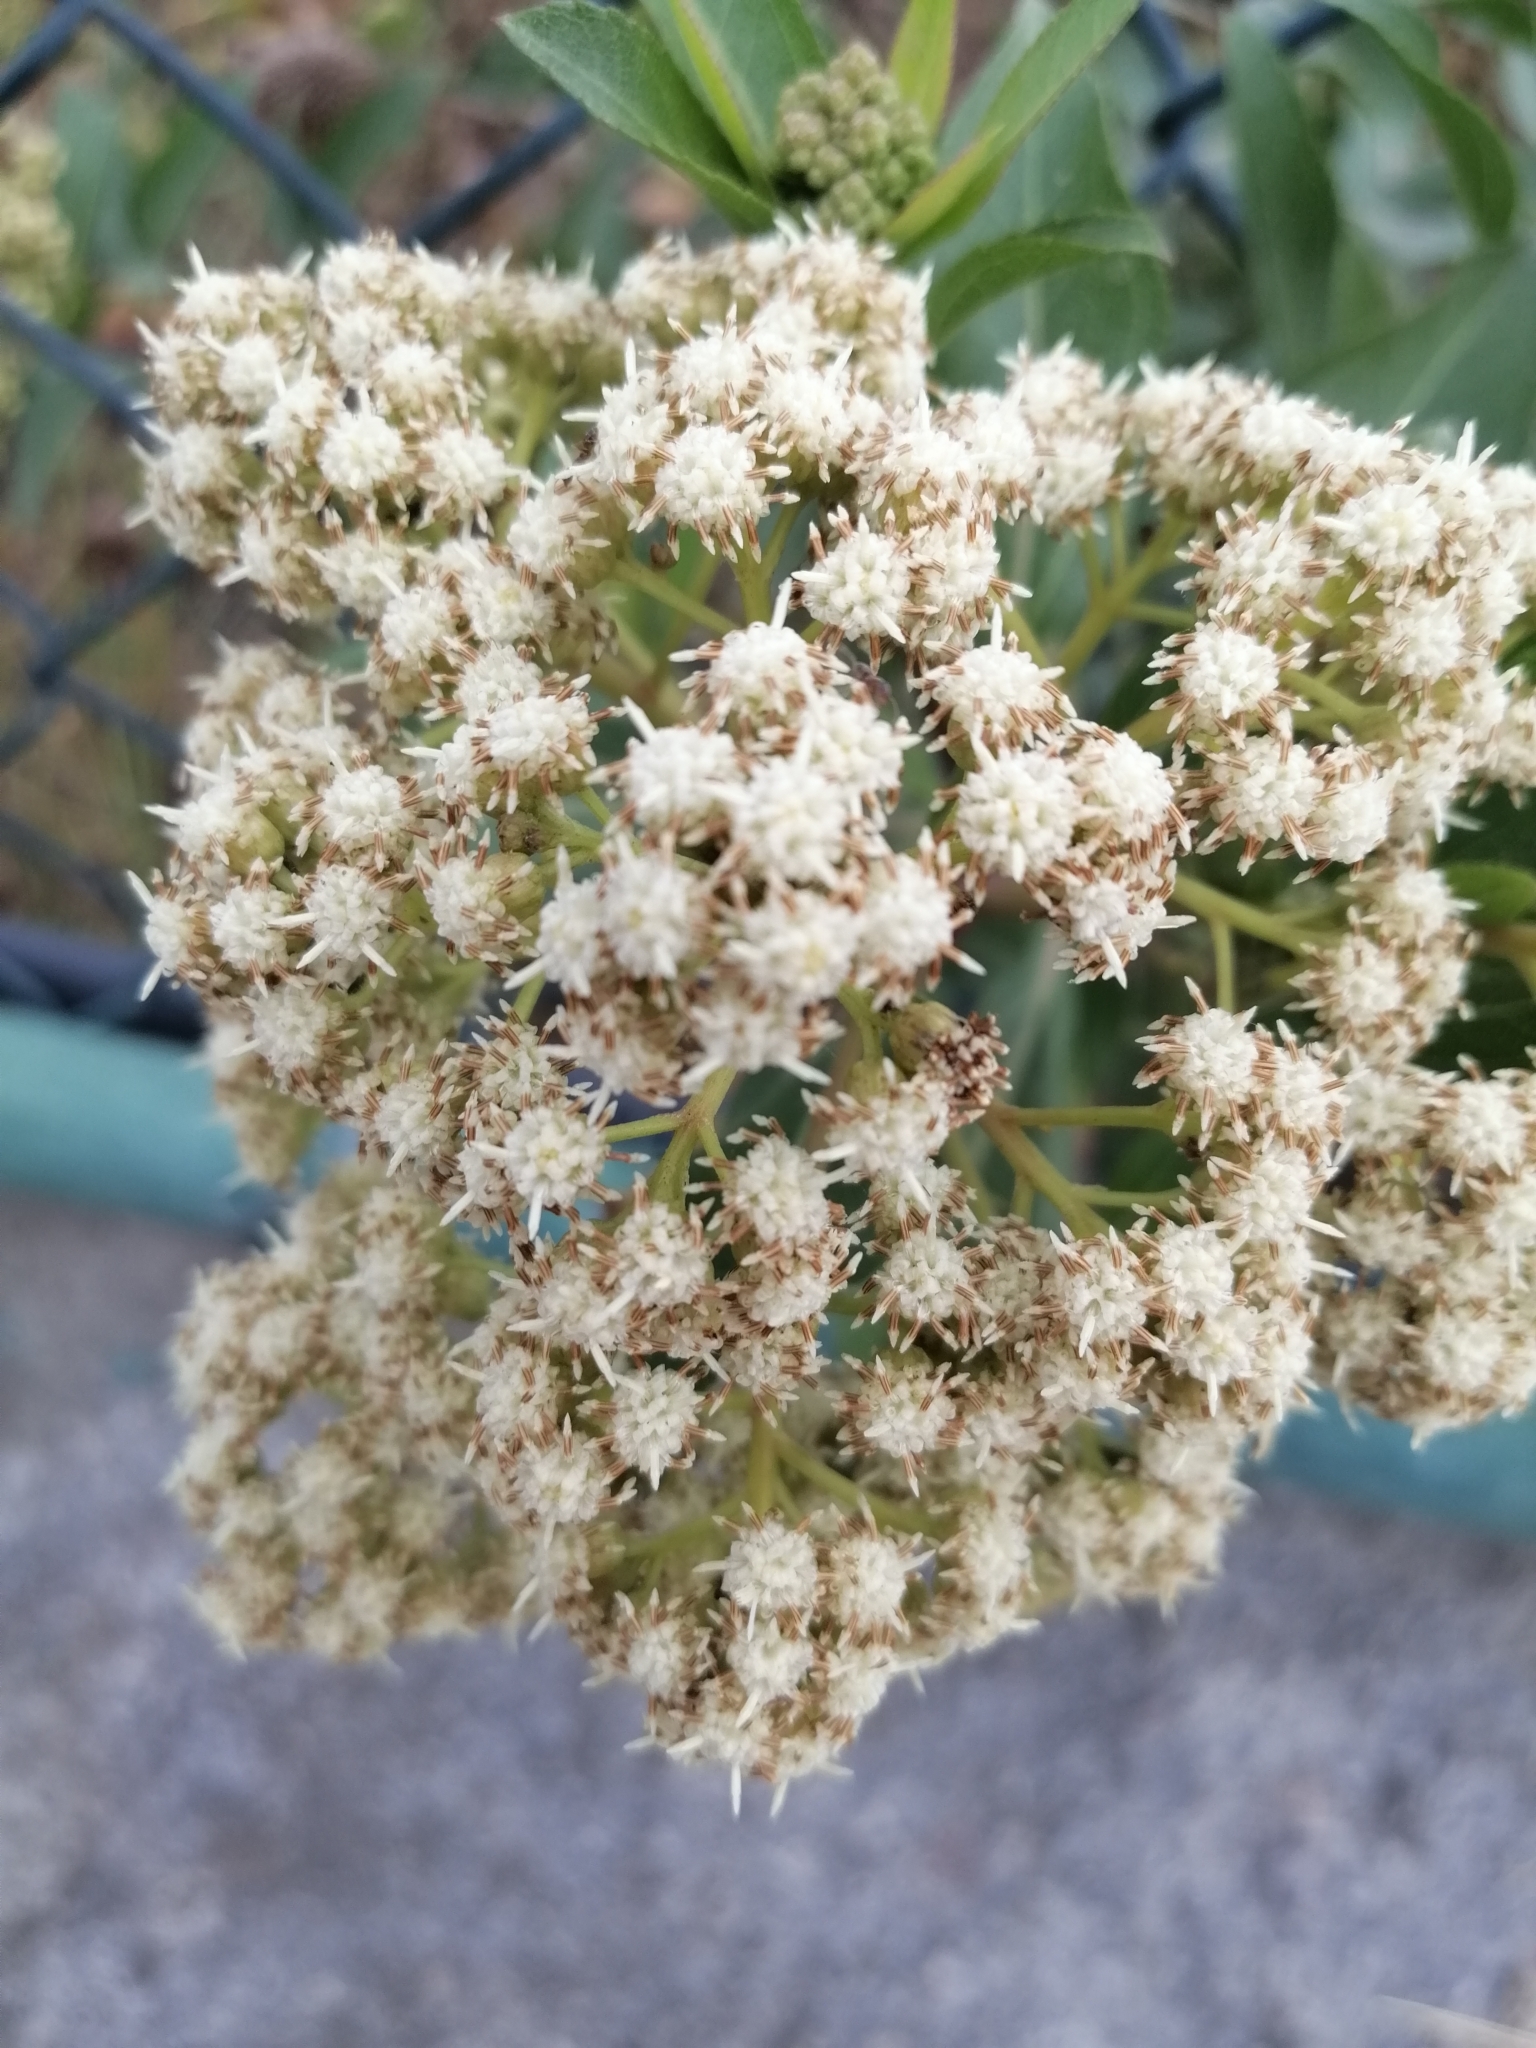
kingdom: Plantae
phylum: Tracheophyta
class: Magnoliopsida
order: Asterales
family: Asteraceae
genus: Baccharis
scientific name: Baccharis latifolia
